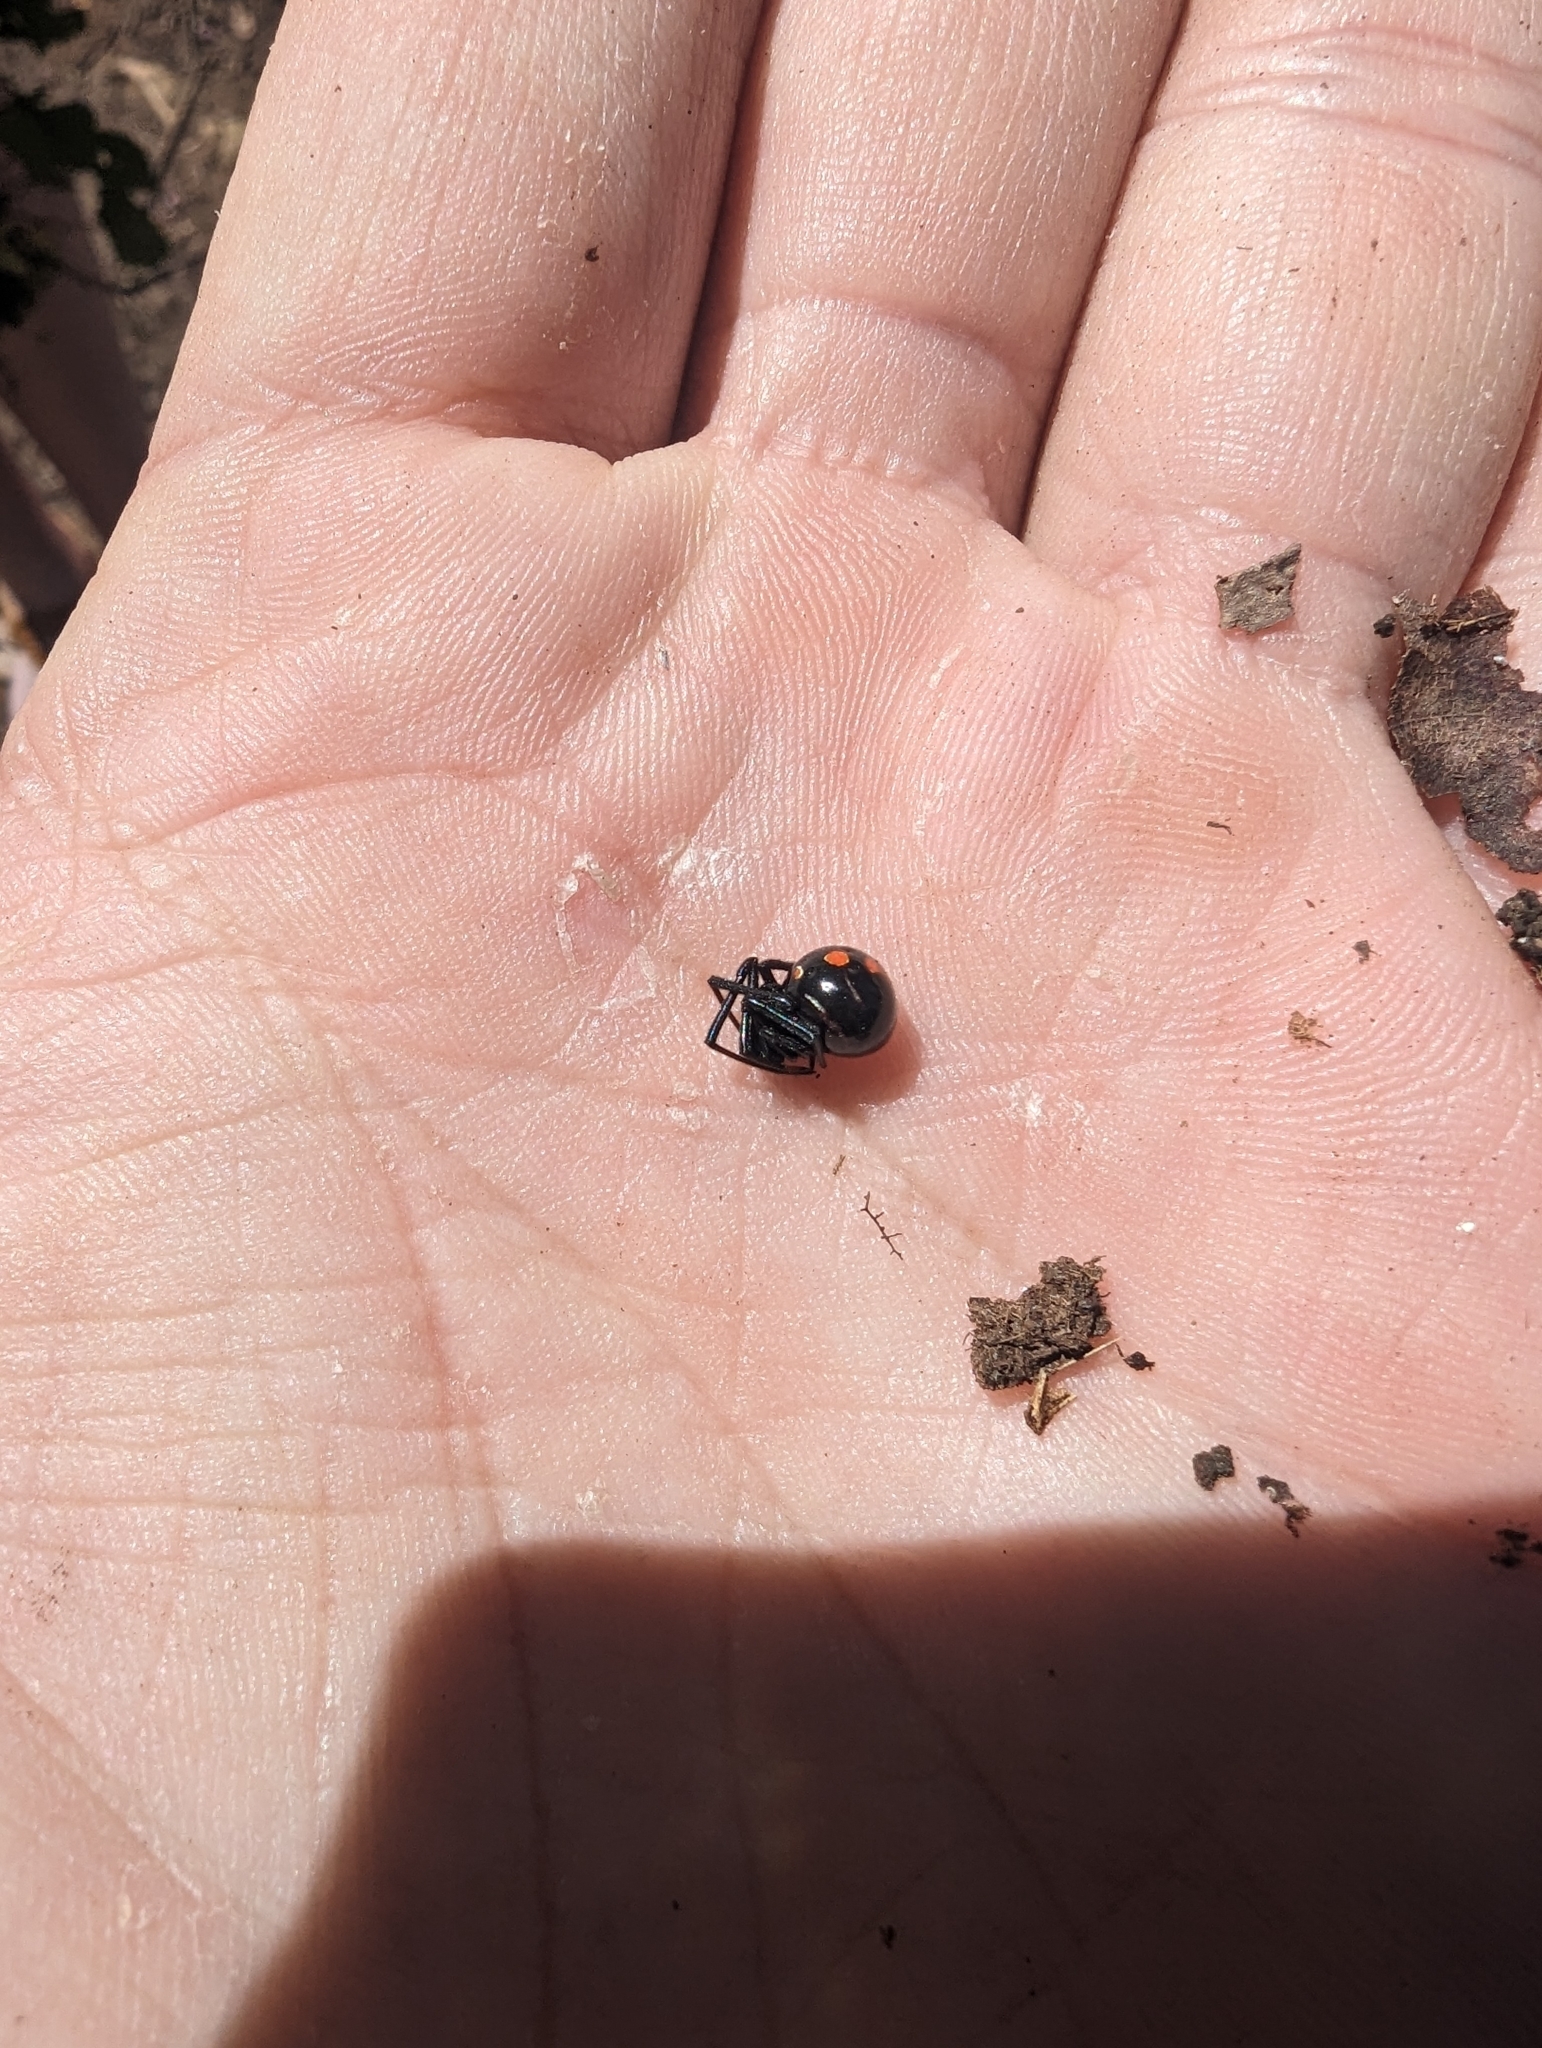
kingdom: Animalia
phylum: Arthropoda
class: Arachnida
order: Araneae
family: Theridiidae
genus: Latrodectus
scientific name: Latrodectus variolus
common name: Northern black widow
